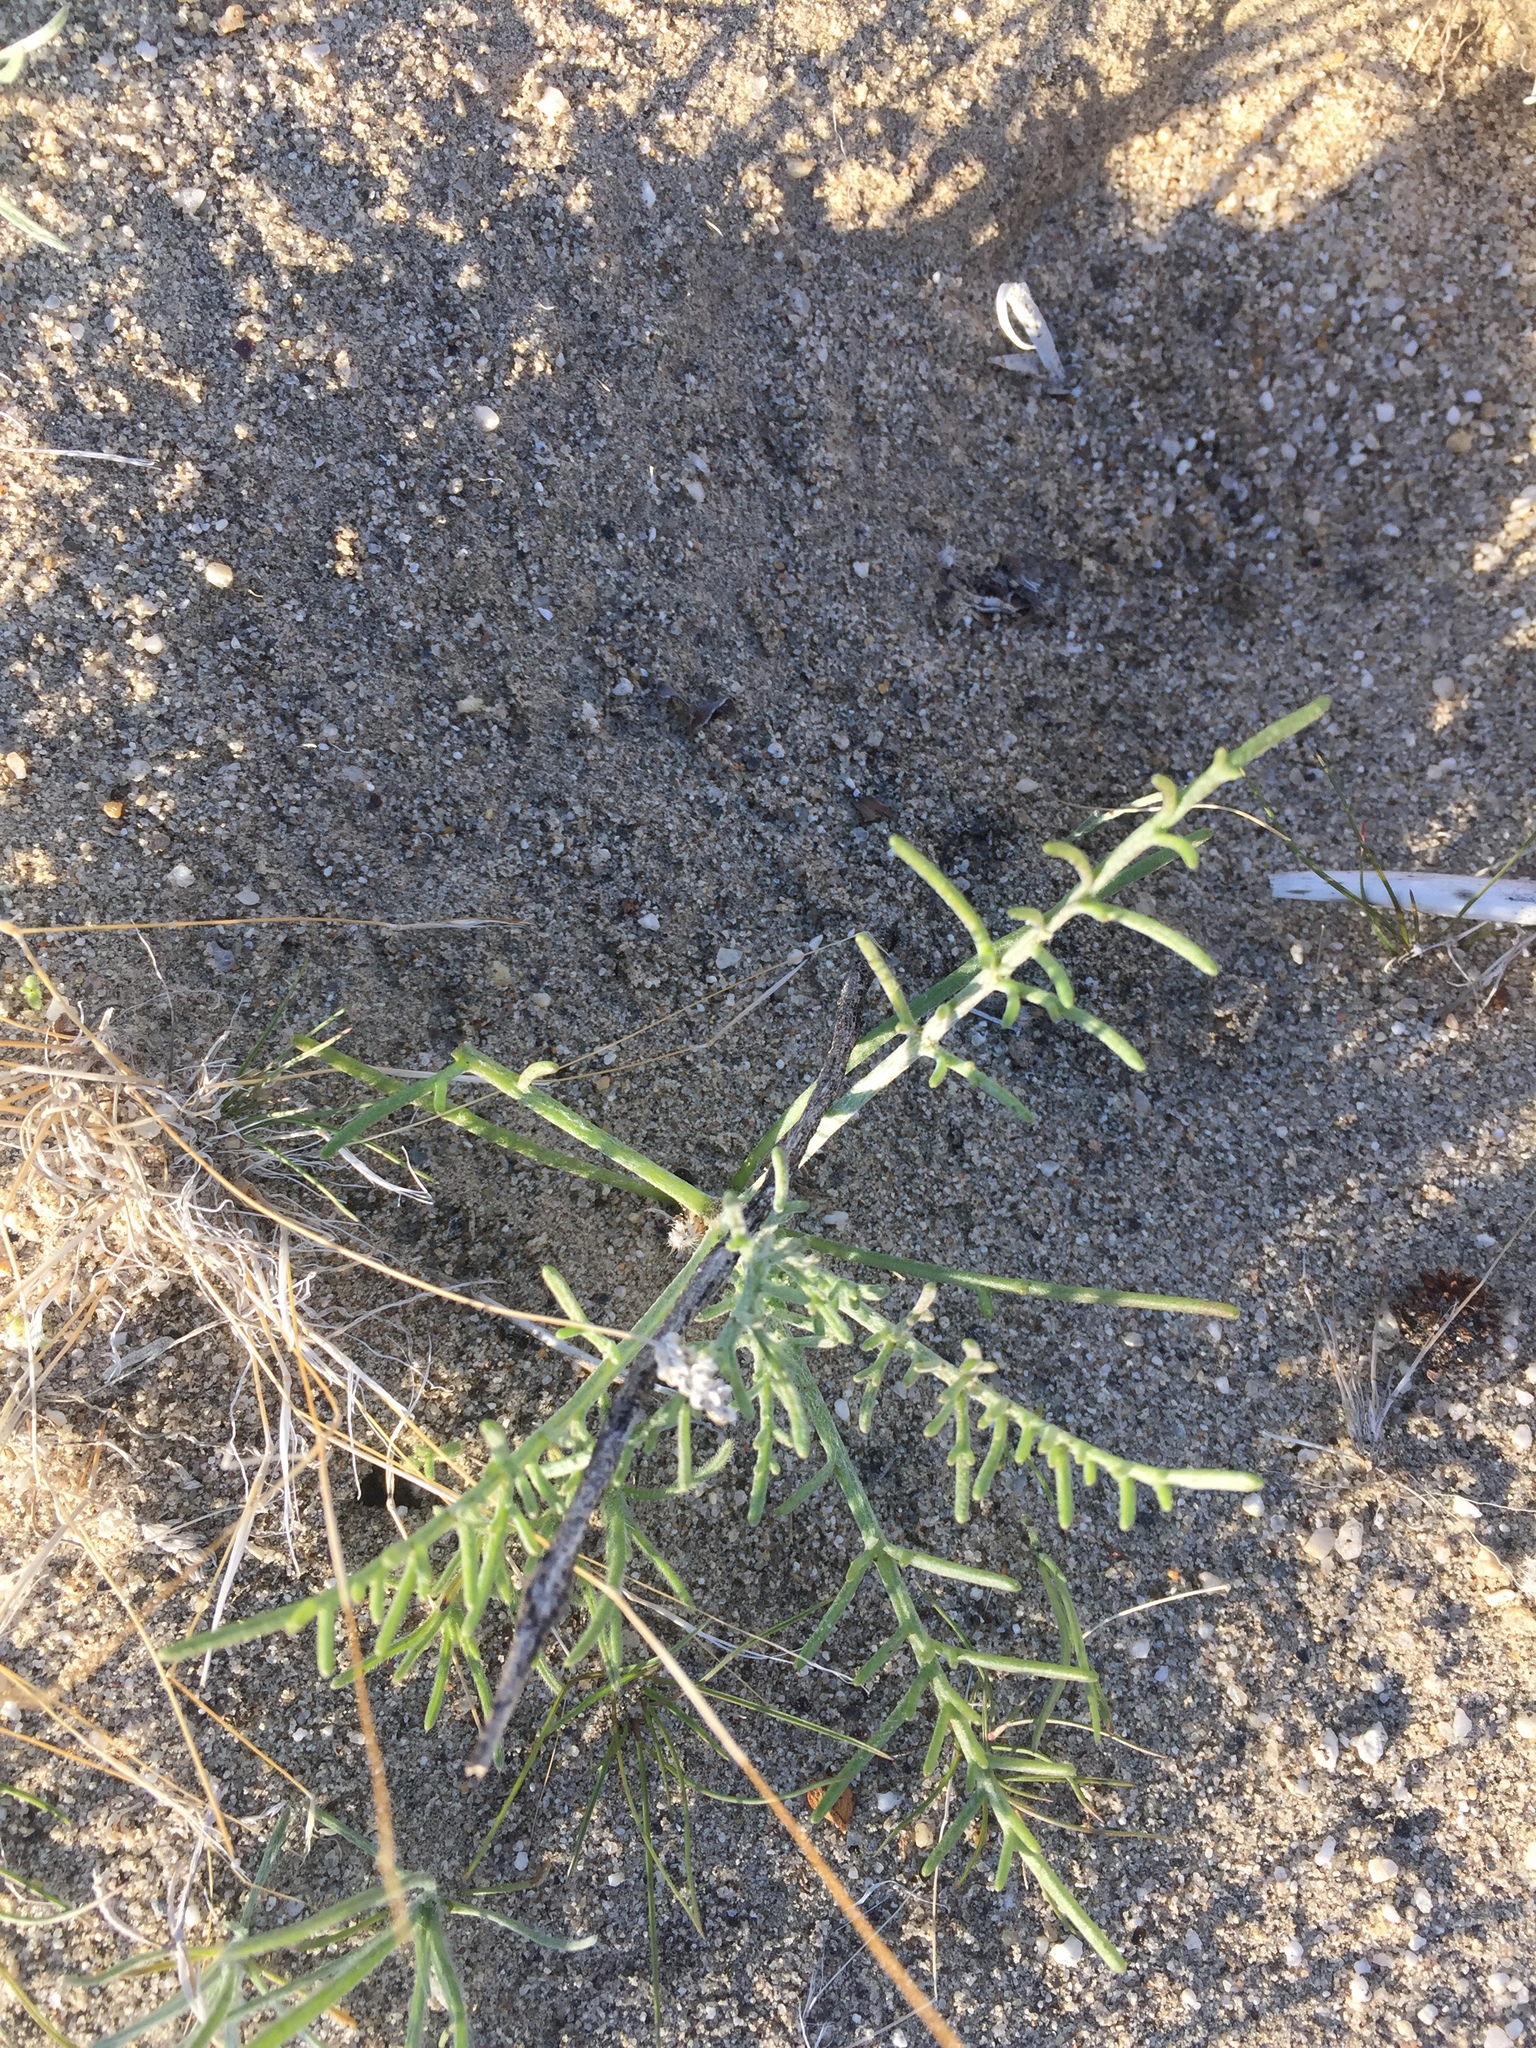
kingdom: Plantae
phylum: Tracheophyta
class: Magnoliopsida
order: Asterales
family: Asteraceae
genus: Chaenactis
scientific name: Chaenactis stevioides
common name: Desert pincushion
